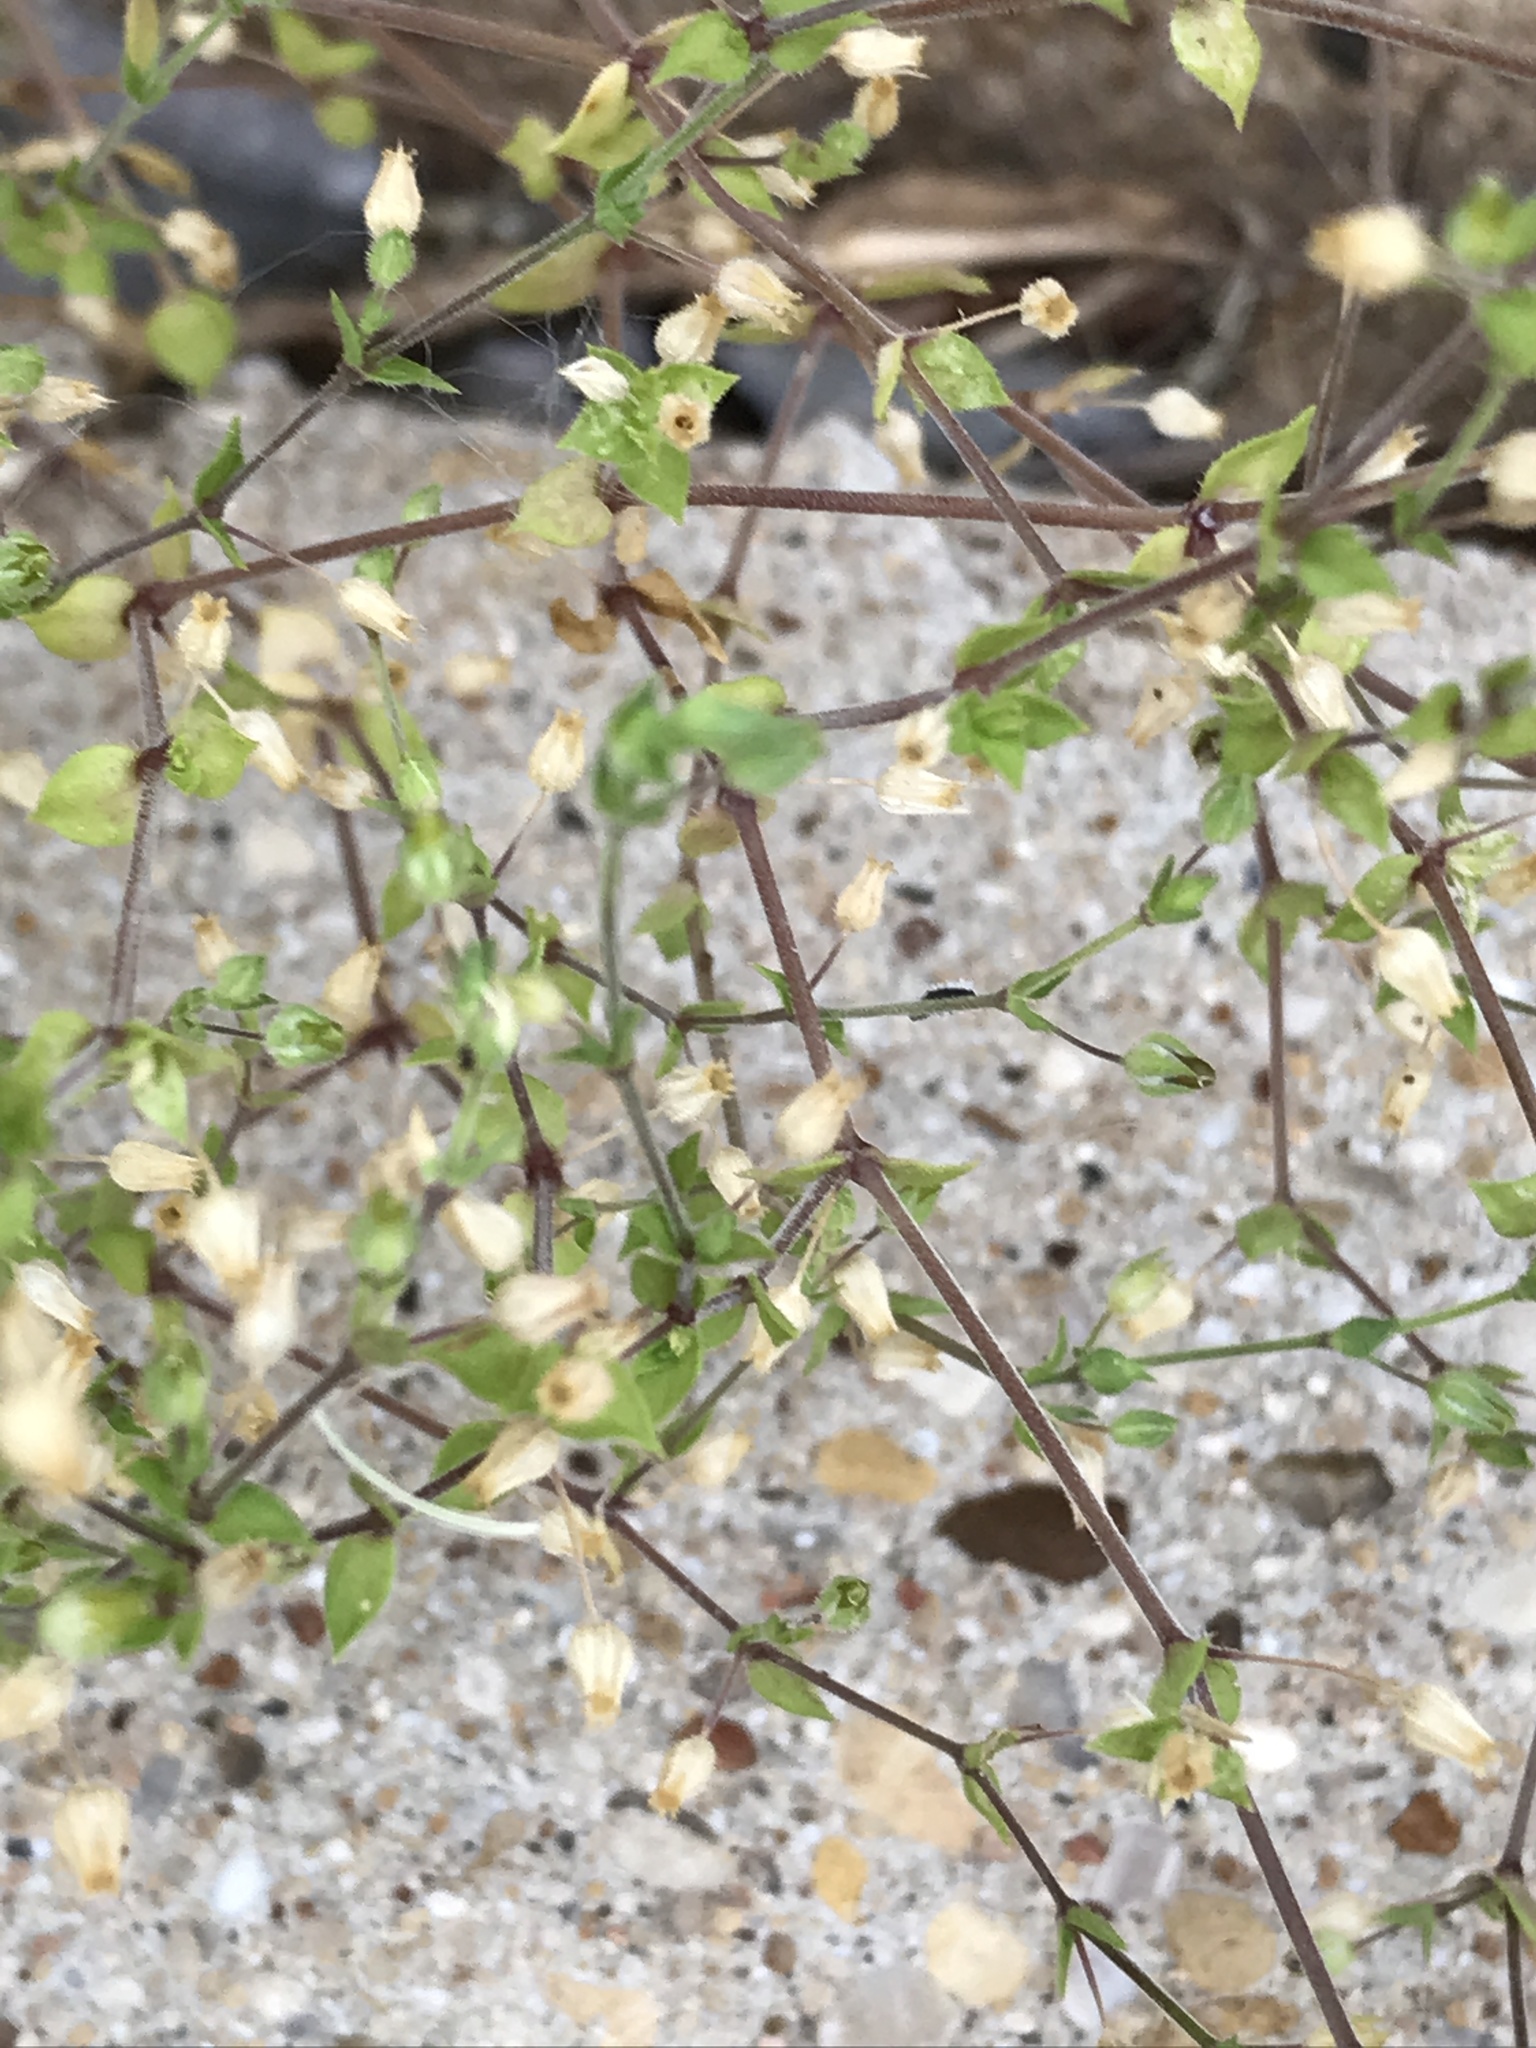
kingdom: Plantae
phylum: Tracheophyta
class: Magnoliopsida
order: Caryophyllales
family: Caryophyllaceae
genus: Arenaria
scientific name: Arenaria serpyllifolia
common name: Thyme-leaved sandwort
